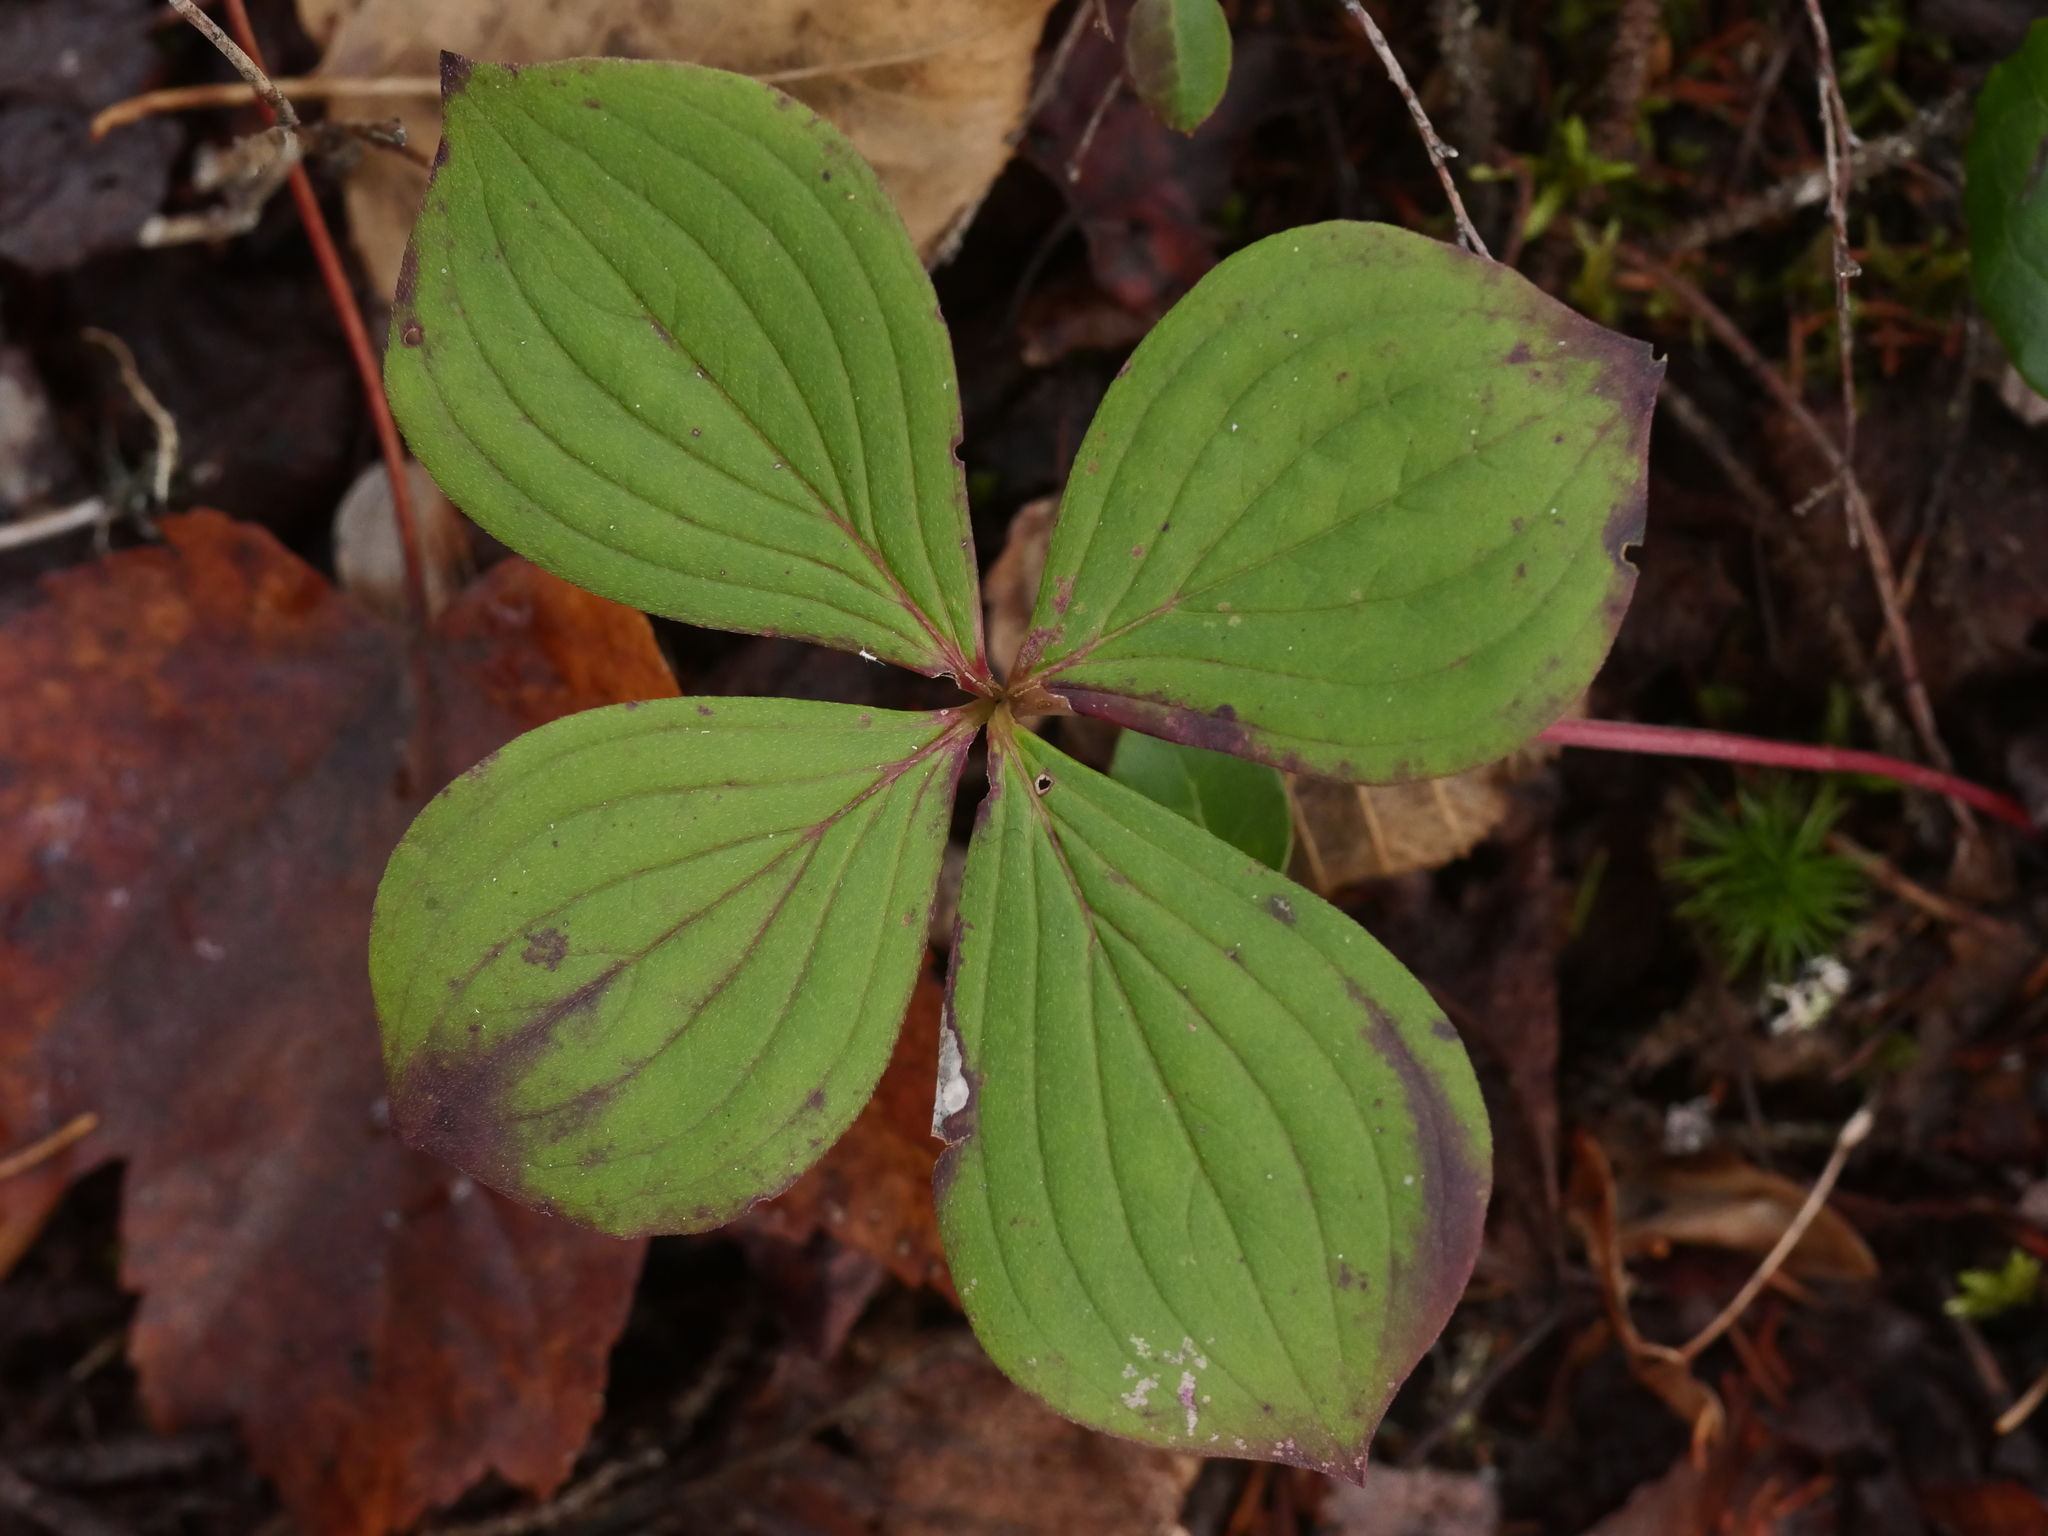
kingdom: Plantae
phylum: Tracheophyta
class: Magnoliopsida
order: Cornales
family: Cornaceae
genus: Cornus
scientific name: Cornus canadensis
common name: Creeping dogwood
